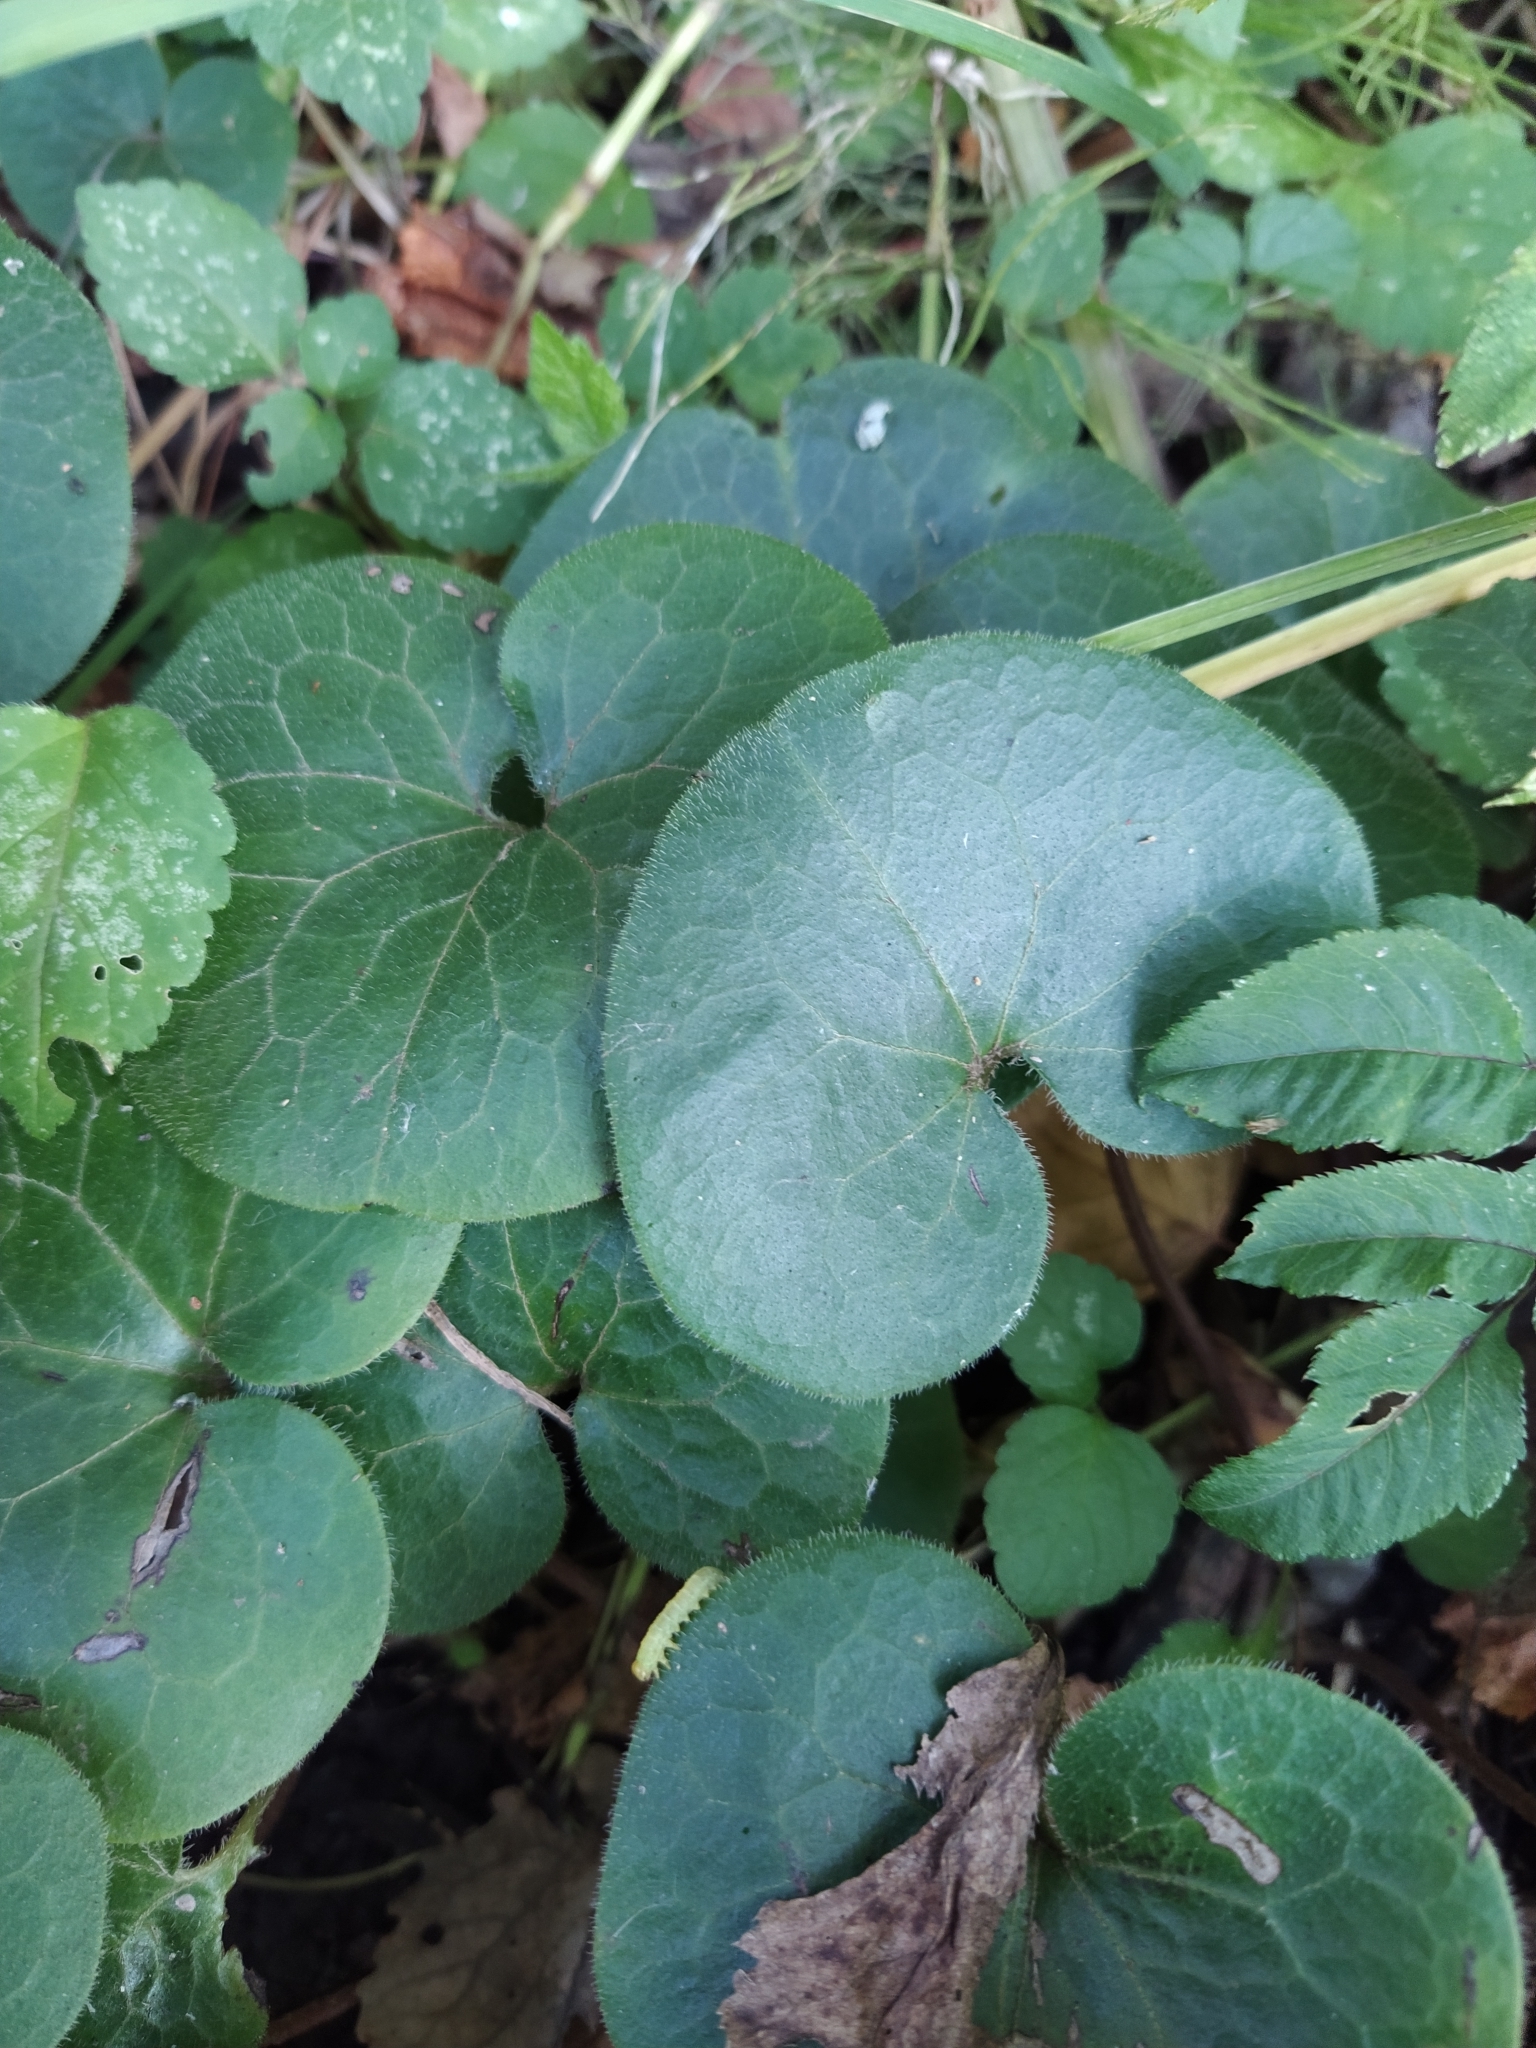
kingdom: Plantae
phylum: Tracheophyta
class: Magnoliopsida
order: Piperales
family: Aristolochiaceae
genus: Asarum
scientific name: Asarum europaeum
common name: Asarabacca
